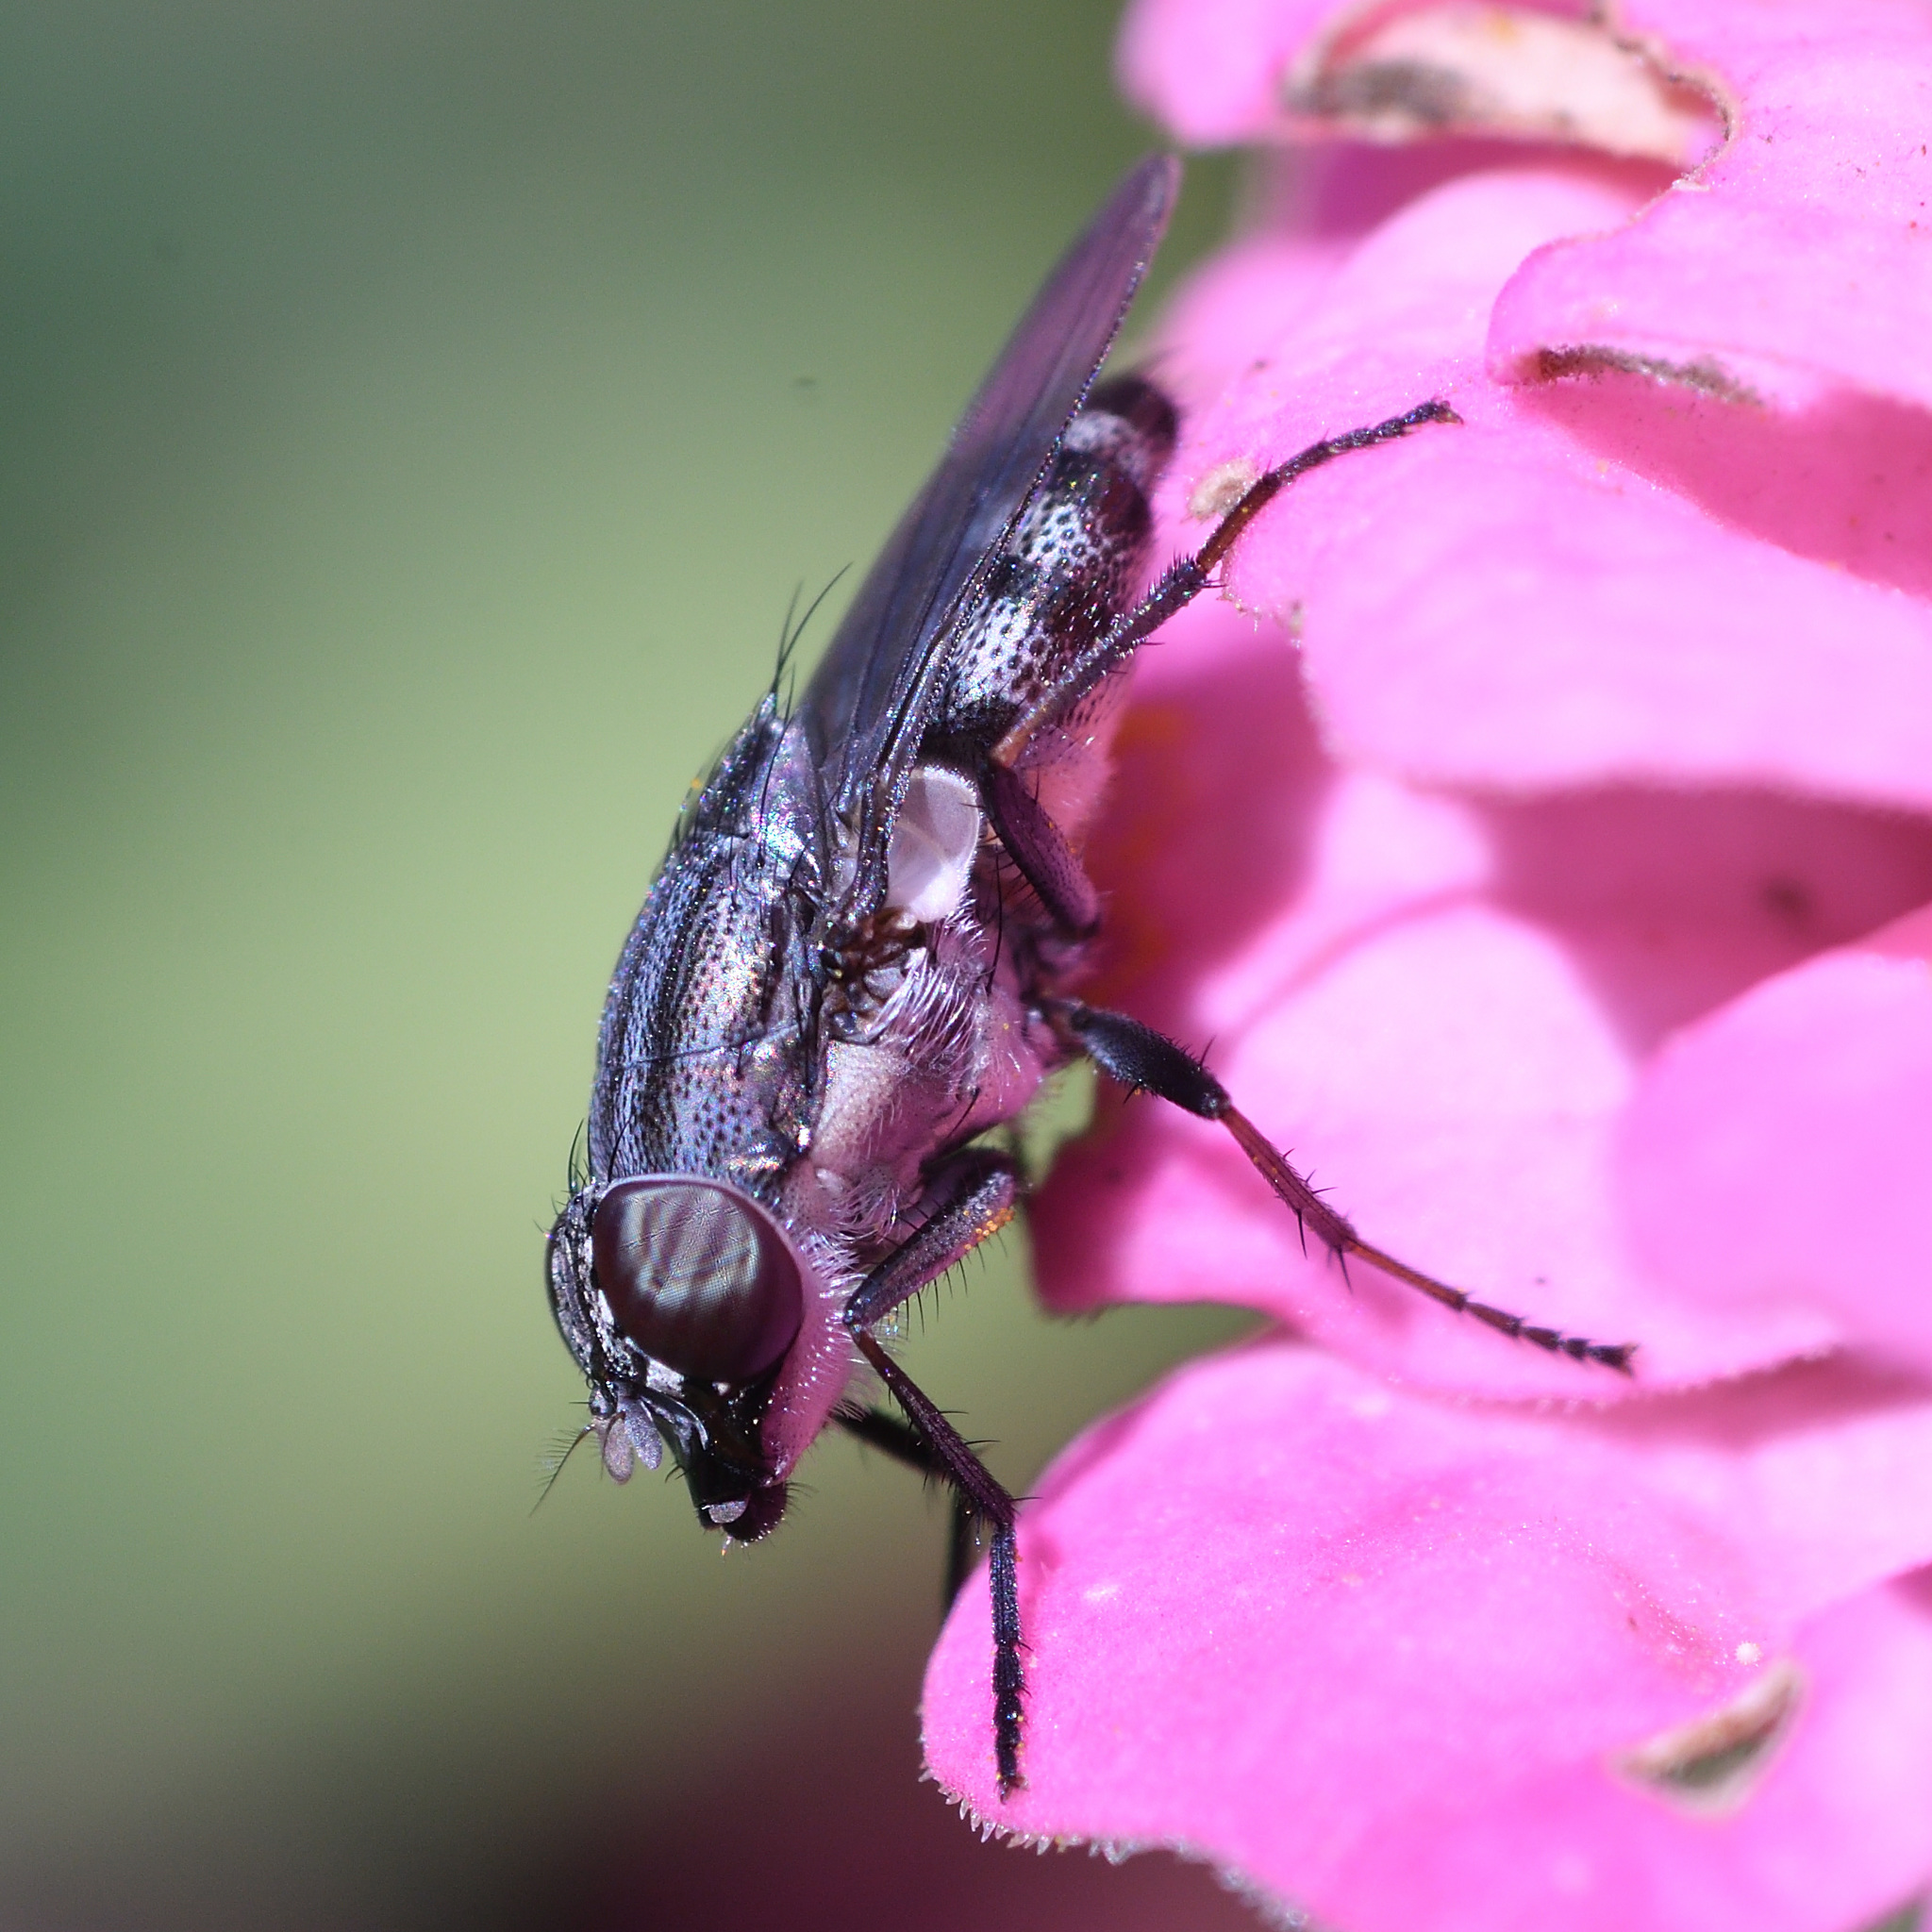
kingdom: Animalia
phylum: Arthropoda
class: Insecta
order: Diptera
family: Calliphoridae
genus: Stomorhina
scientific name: Stomorhina lunata
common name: Locust blowfly
